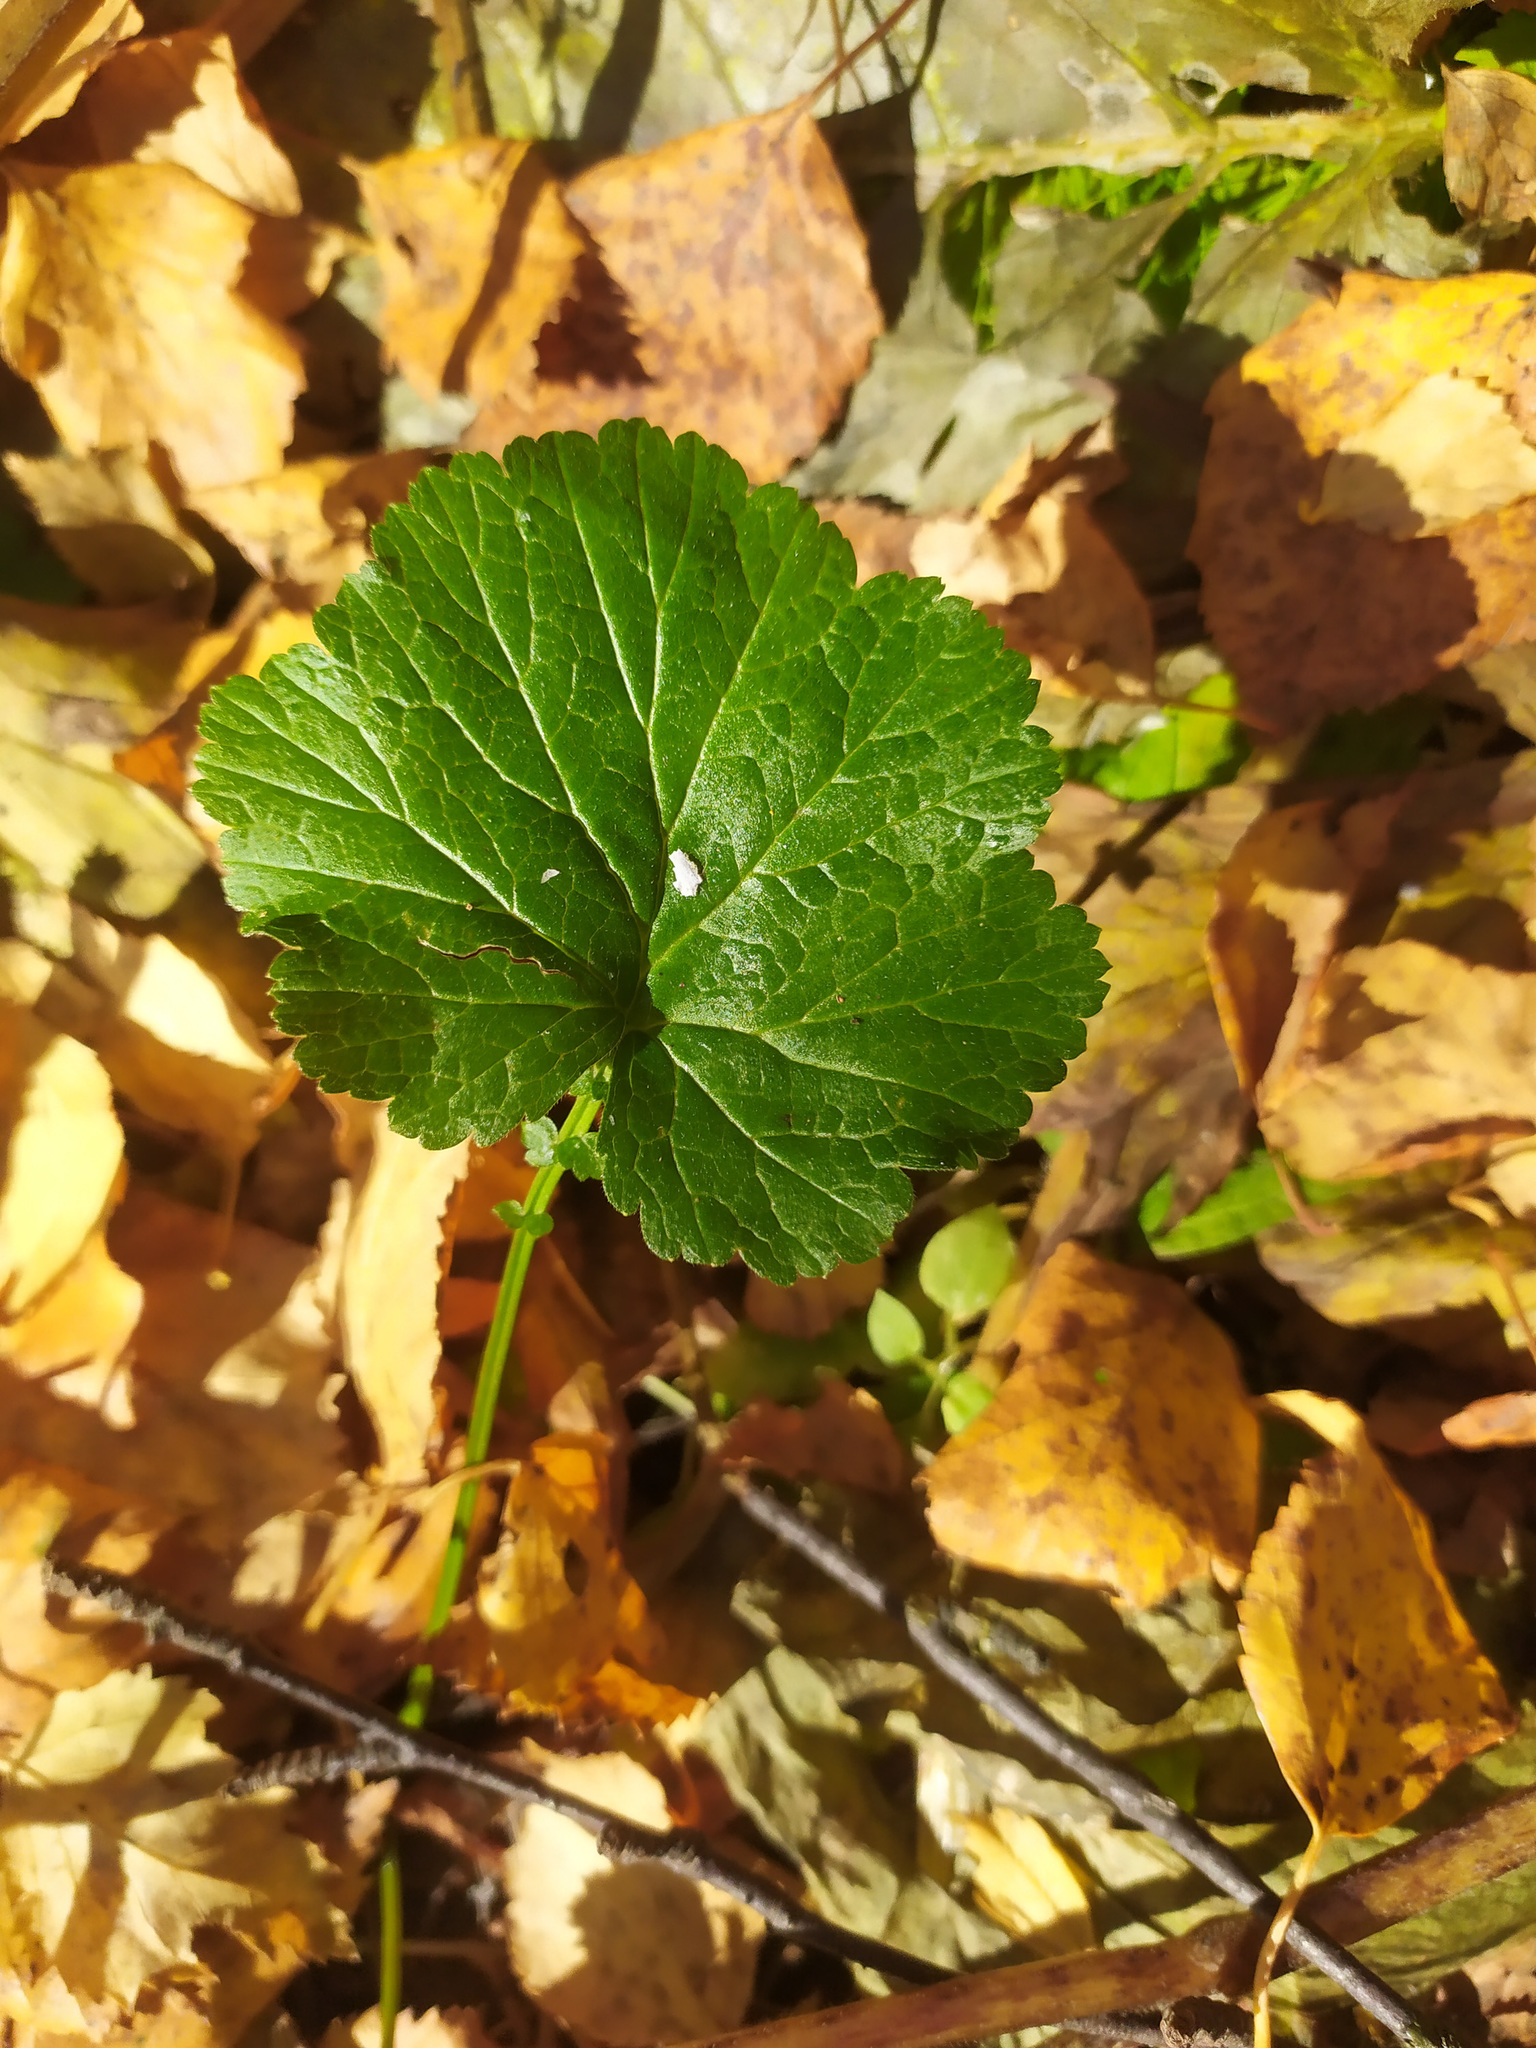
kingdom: Plantae
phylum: Tracheophyta
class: Magnoliopsida
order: Rosales
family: Rosaceae
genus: Geum
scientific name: Geum
